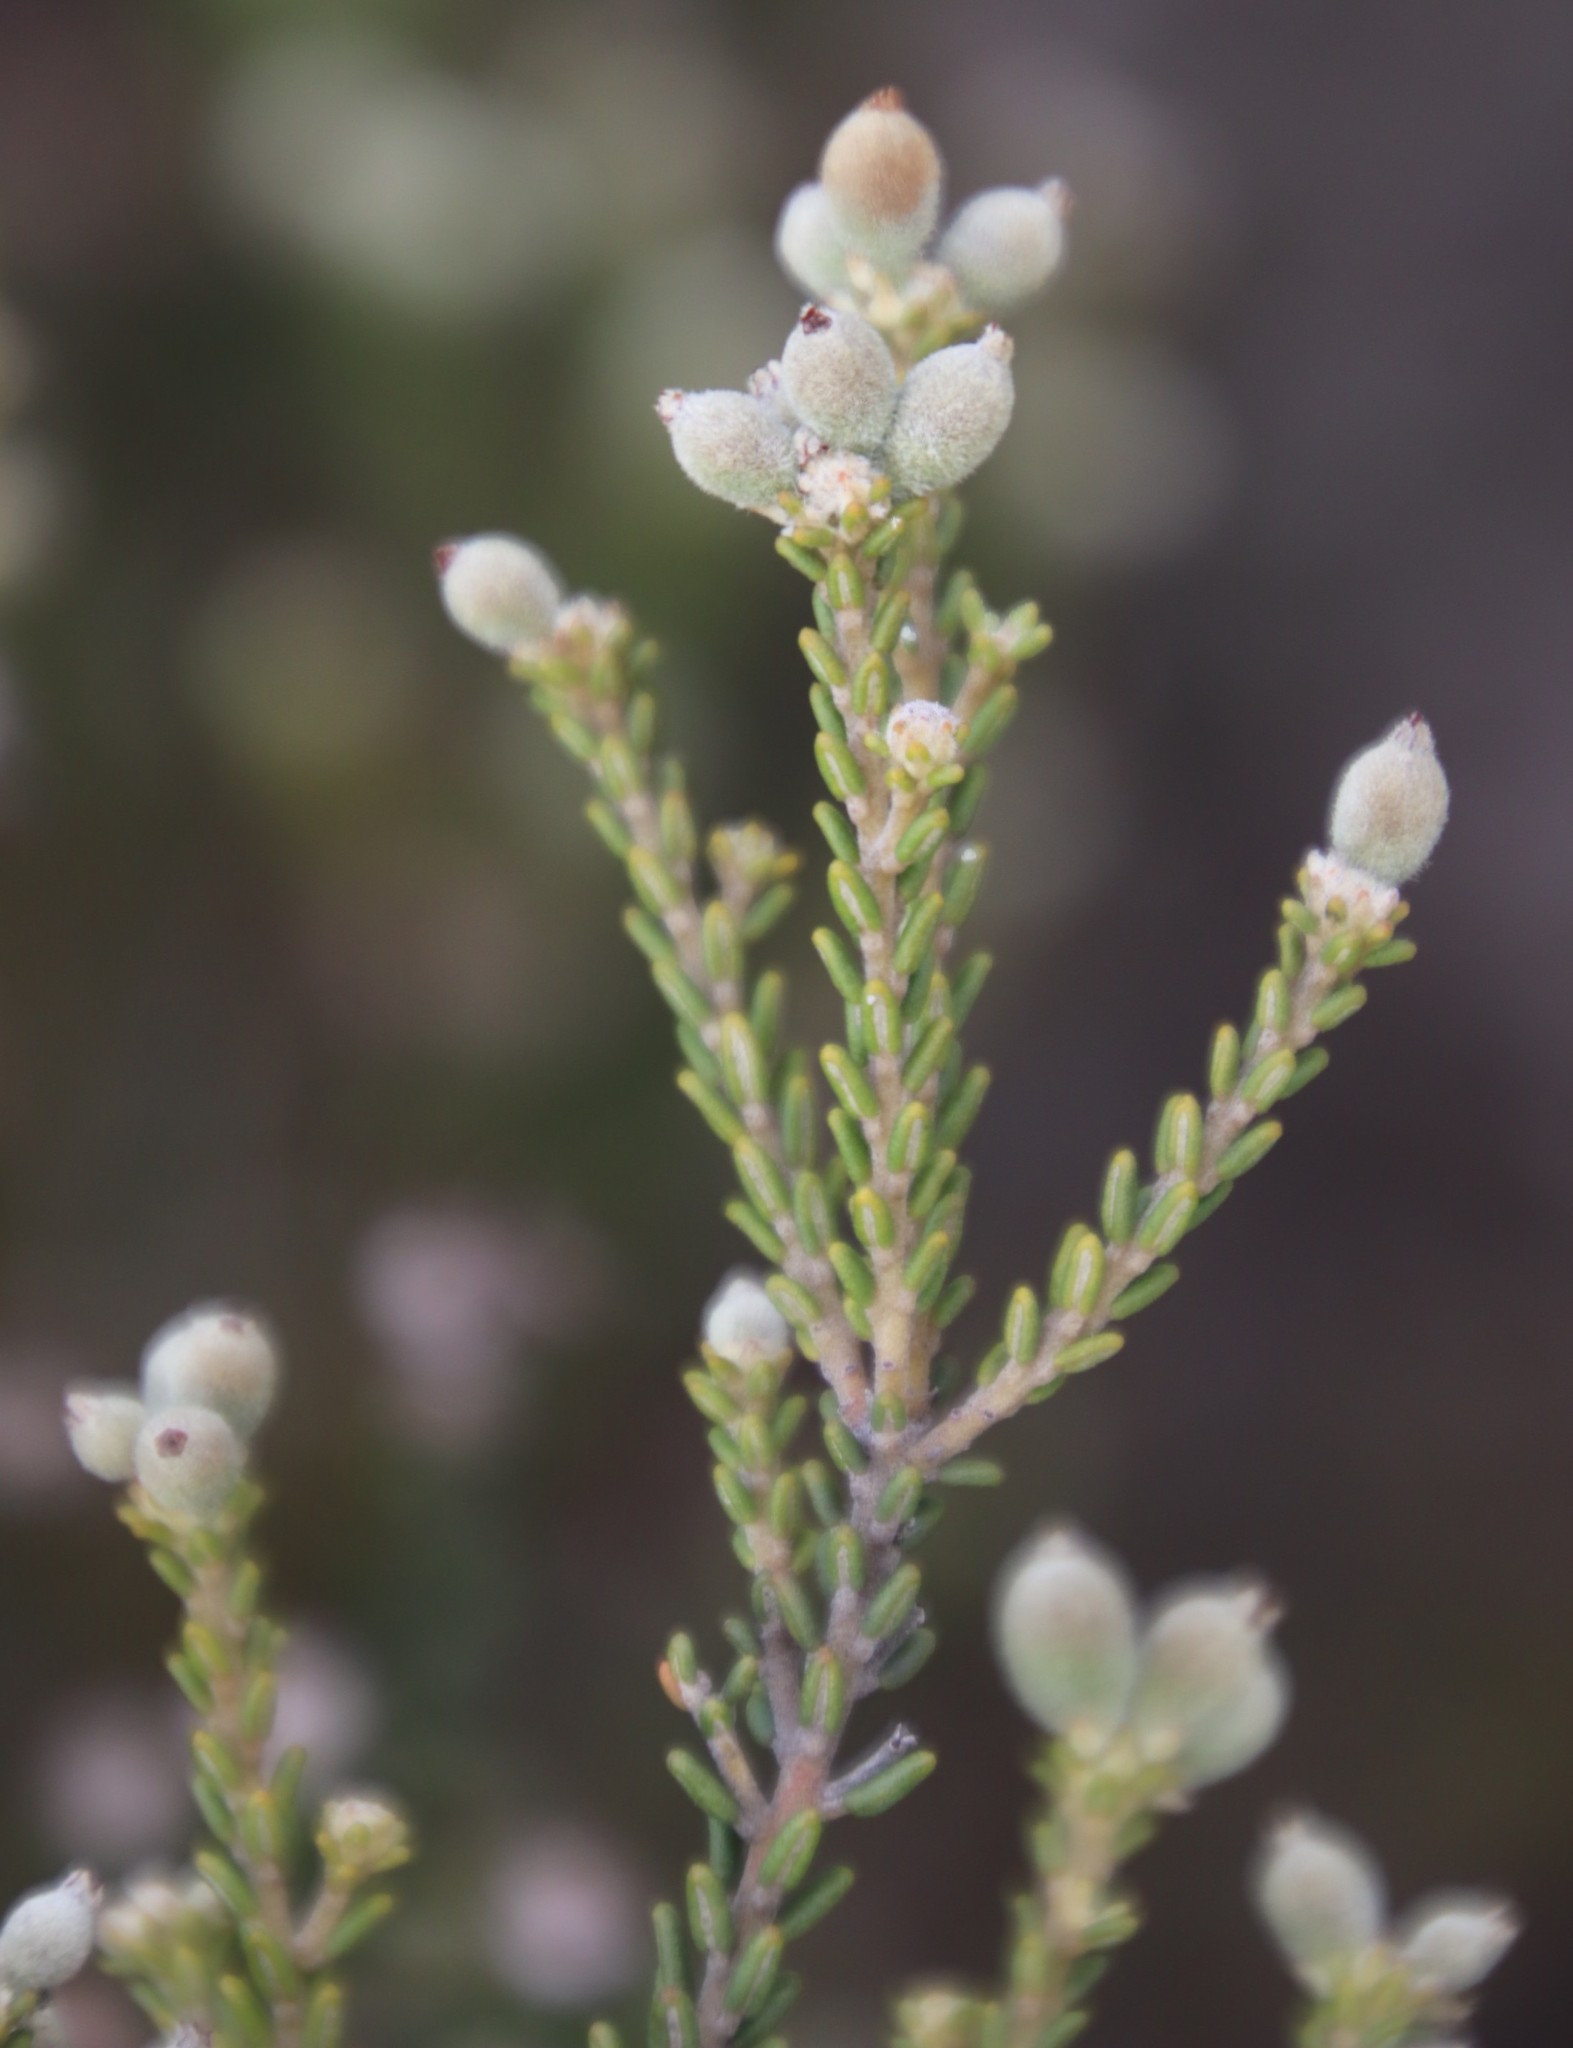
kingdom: Plantae
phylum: Tracheophyta
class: Magnoliopsida
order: Rosales
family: Rhamnaceae
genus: Phylica
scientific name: Phylica cephalantha
